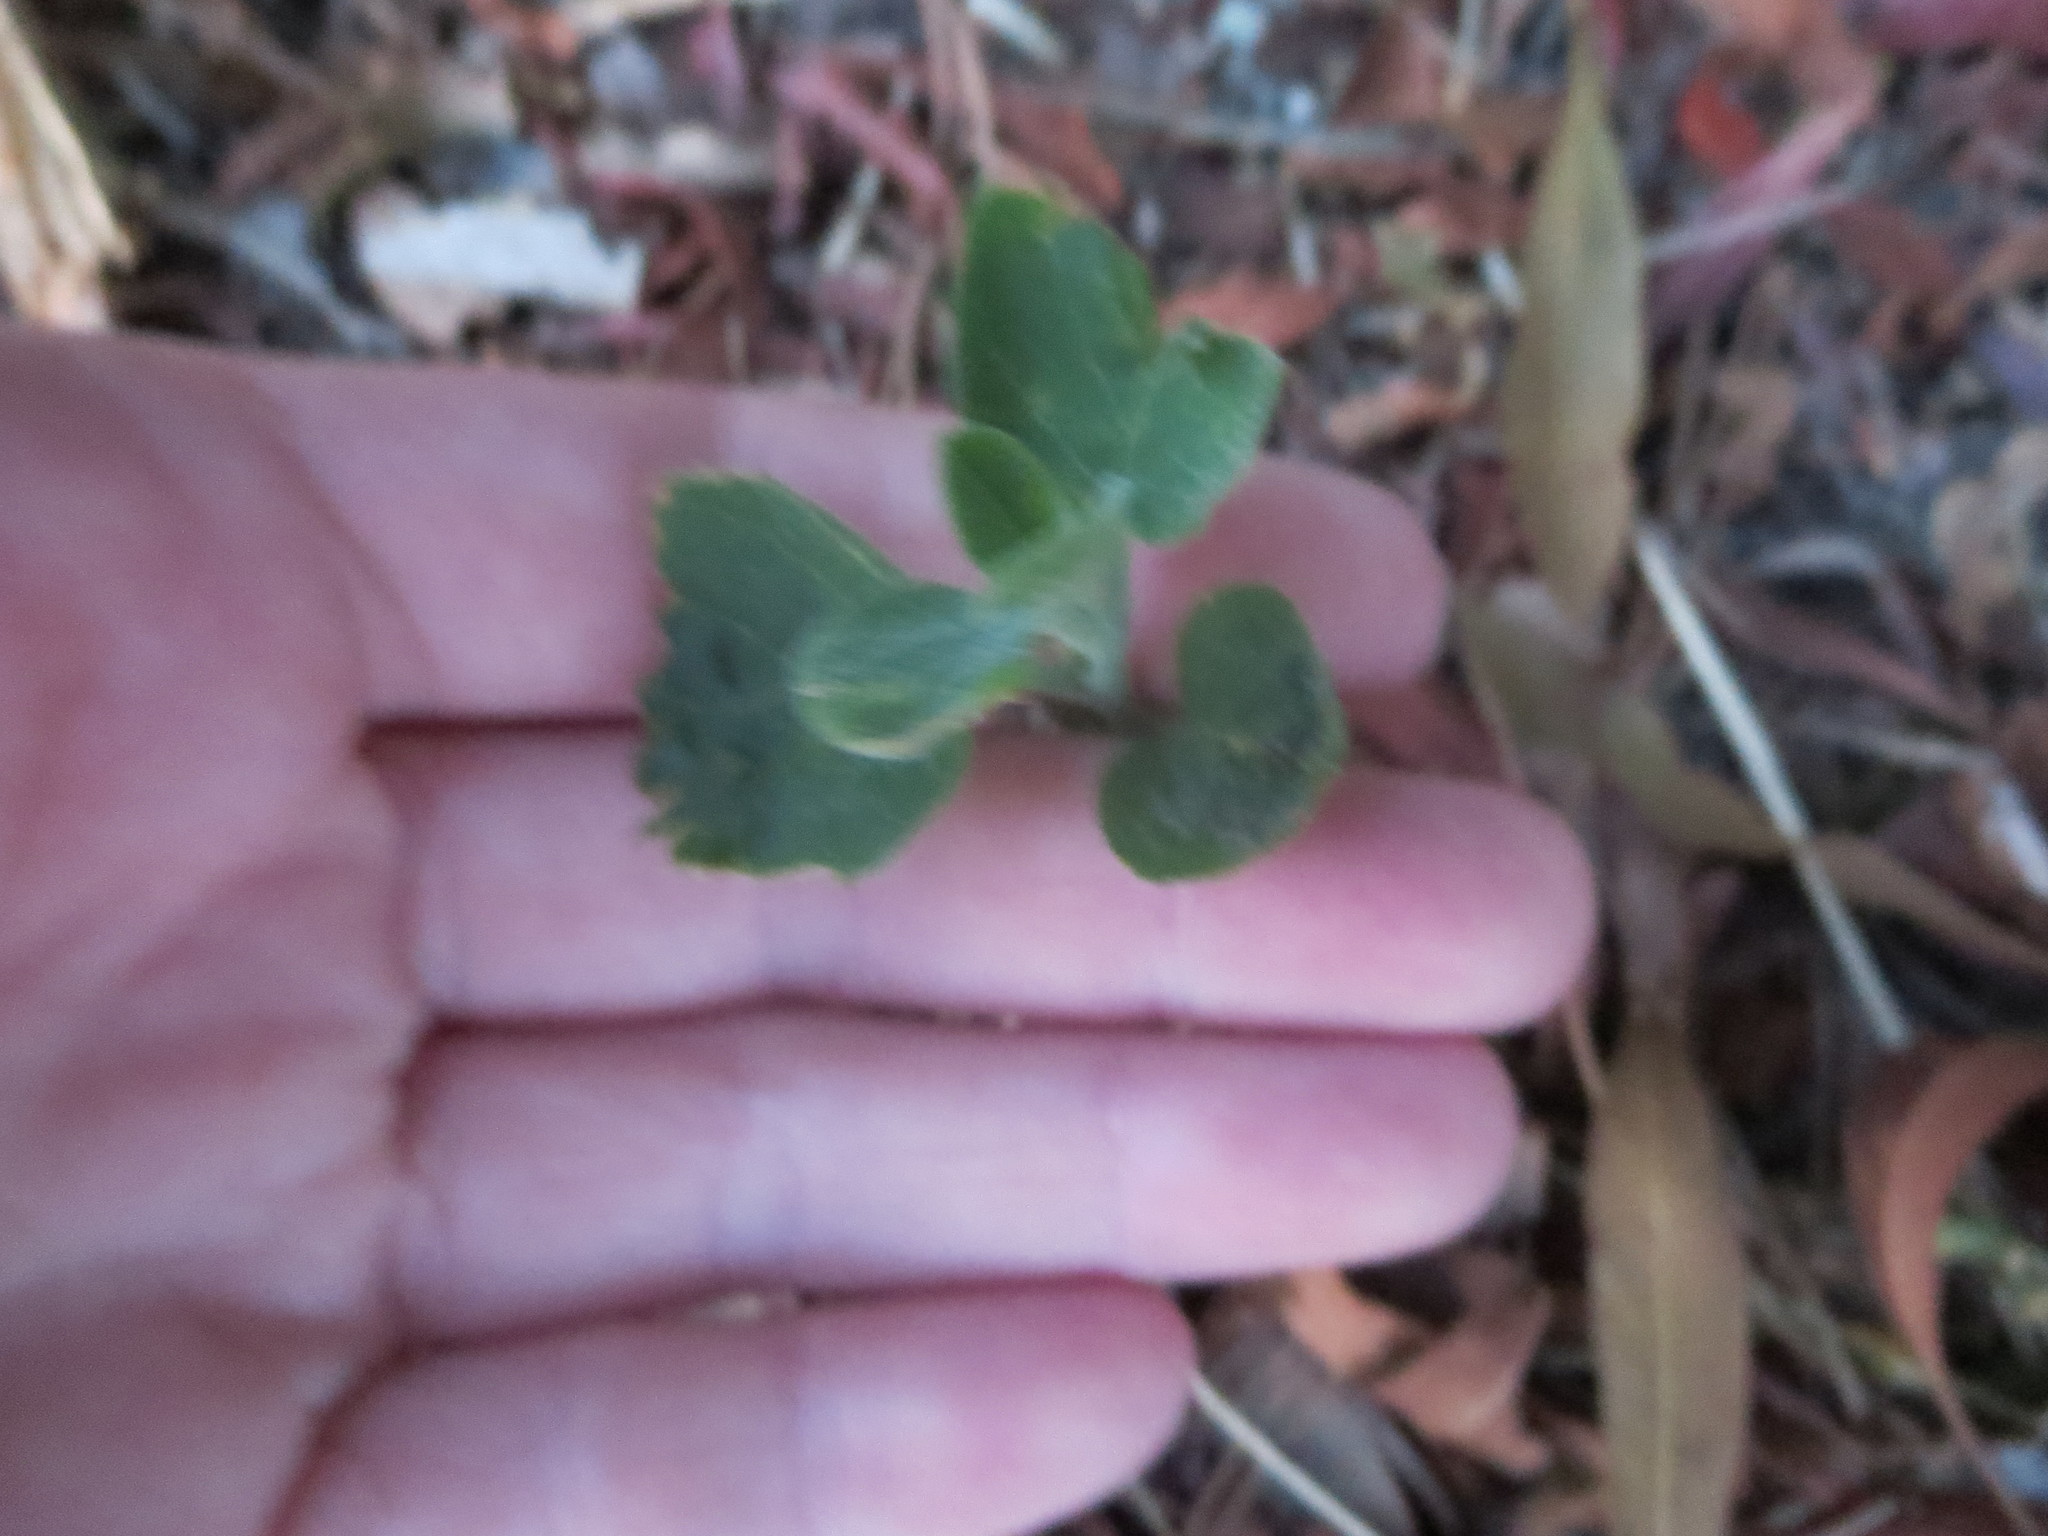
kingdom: Plantae
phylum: Tracheophyta
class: Magnoliopsida
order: Solanales
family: Solanaceae
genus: Physalis
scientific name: Physalis walteri
